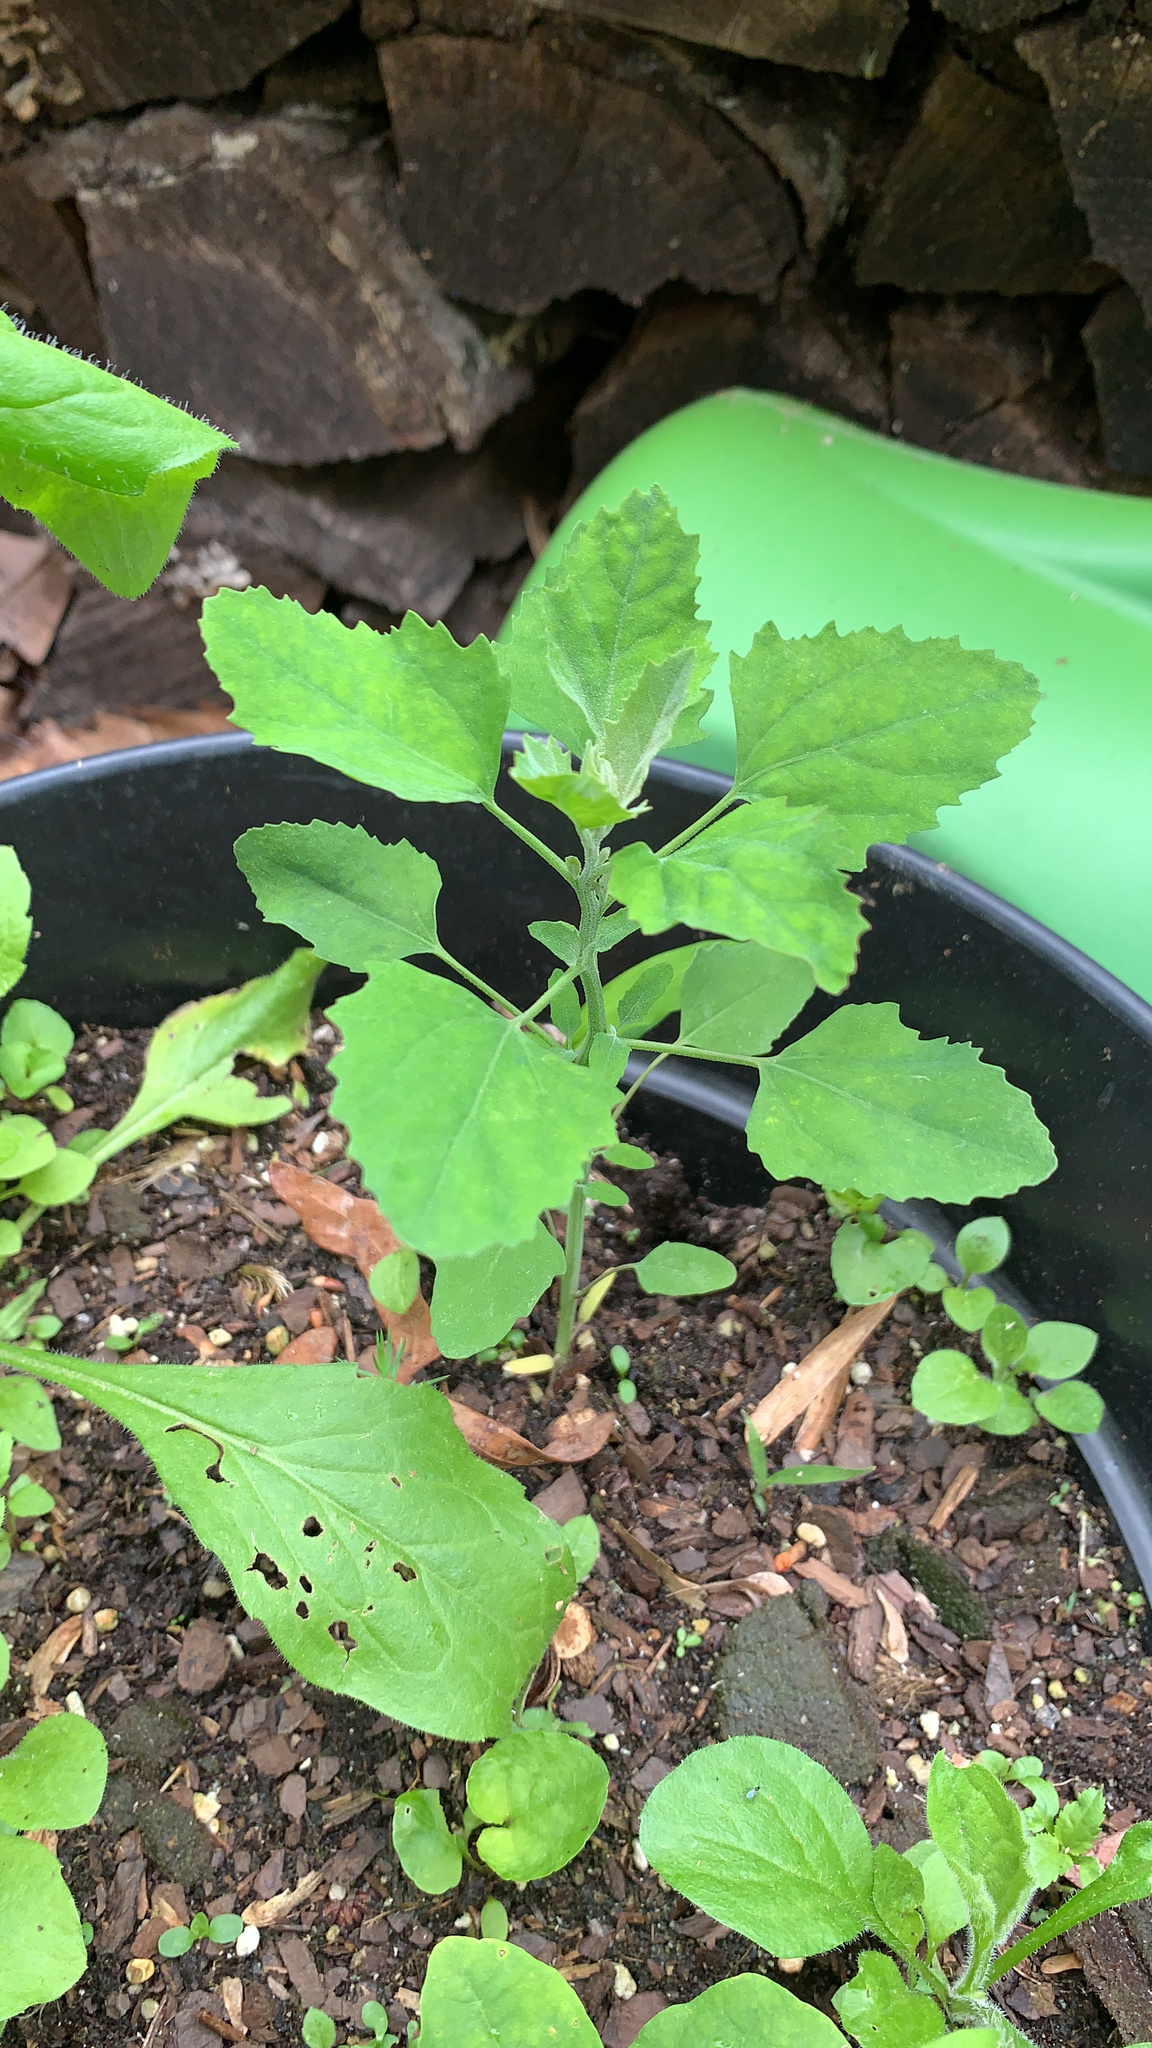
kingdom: Plantae
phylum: Tracheophyta
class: Magnoliopsida
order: Caryophyllales
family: Amaranthaceae
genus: Chenopodium
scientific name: Chenopodium album
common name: Fat-hen
